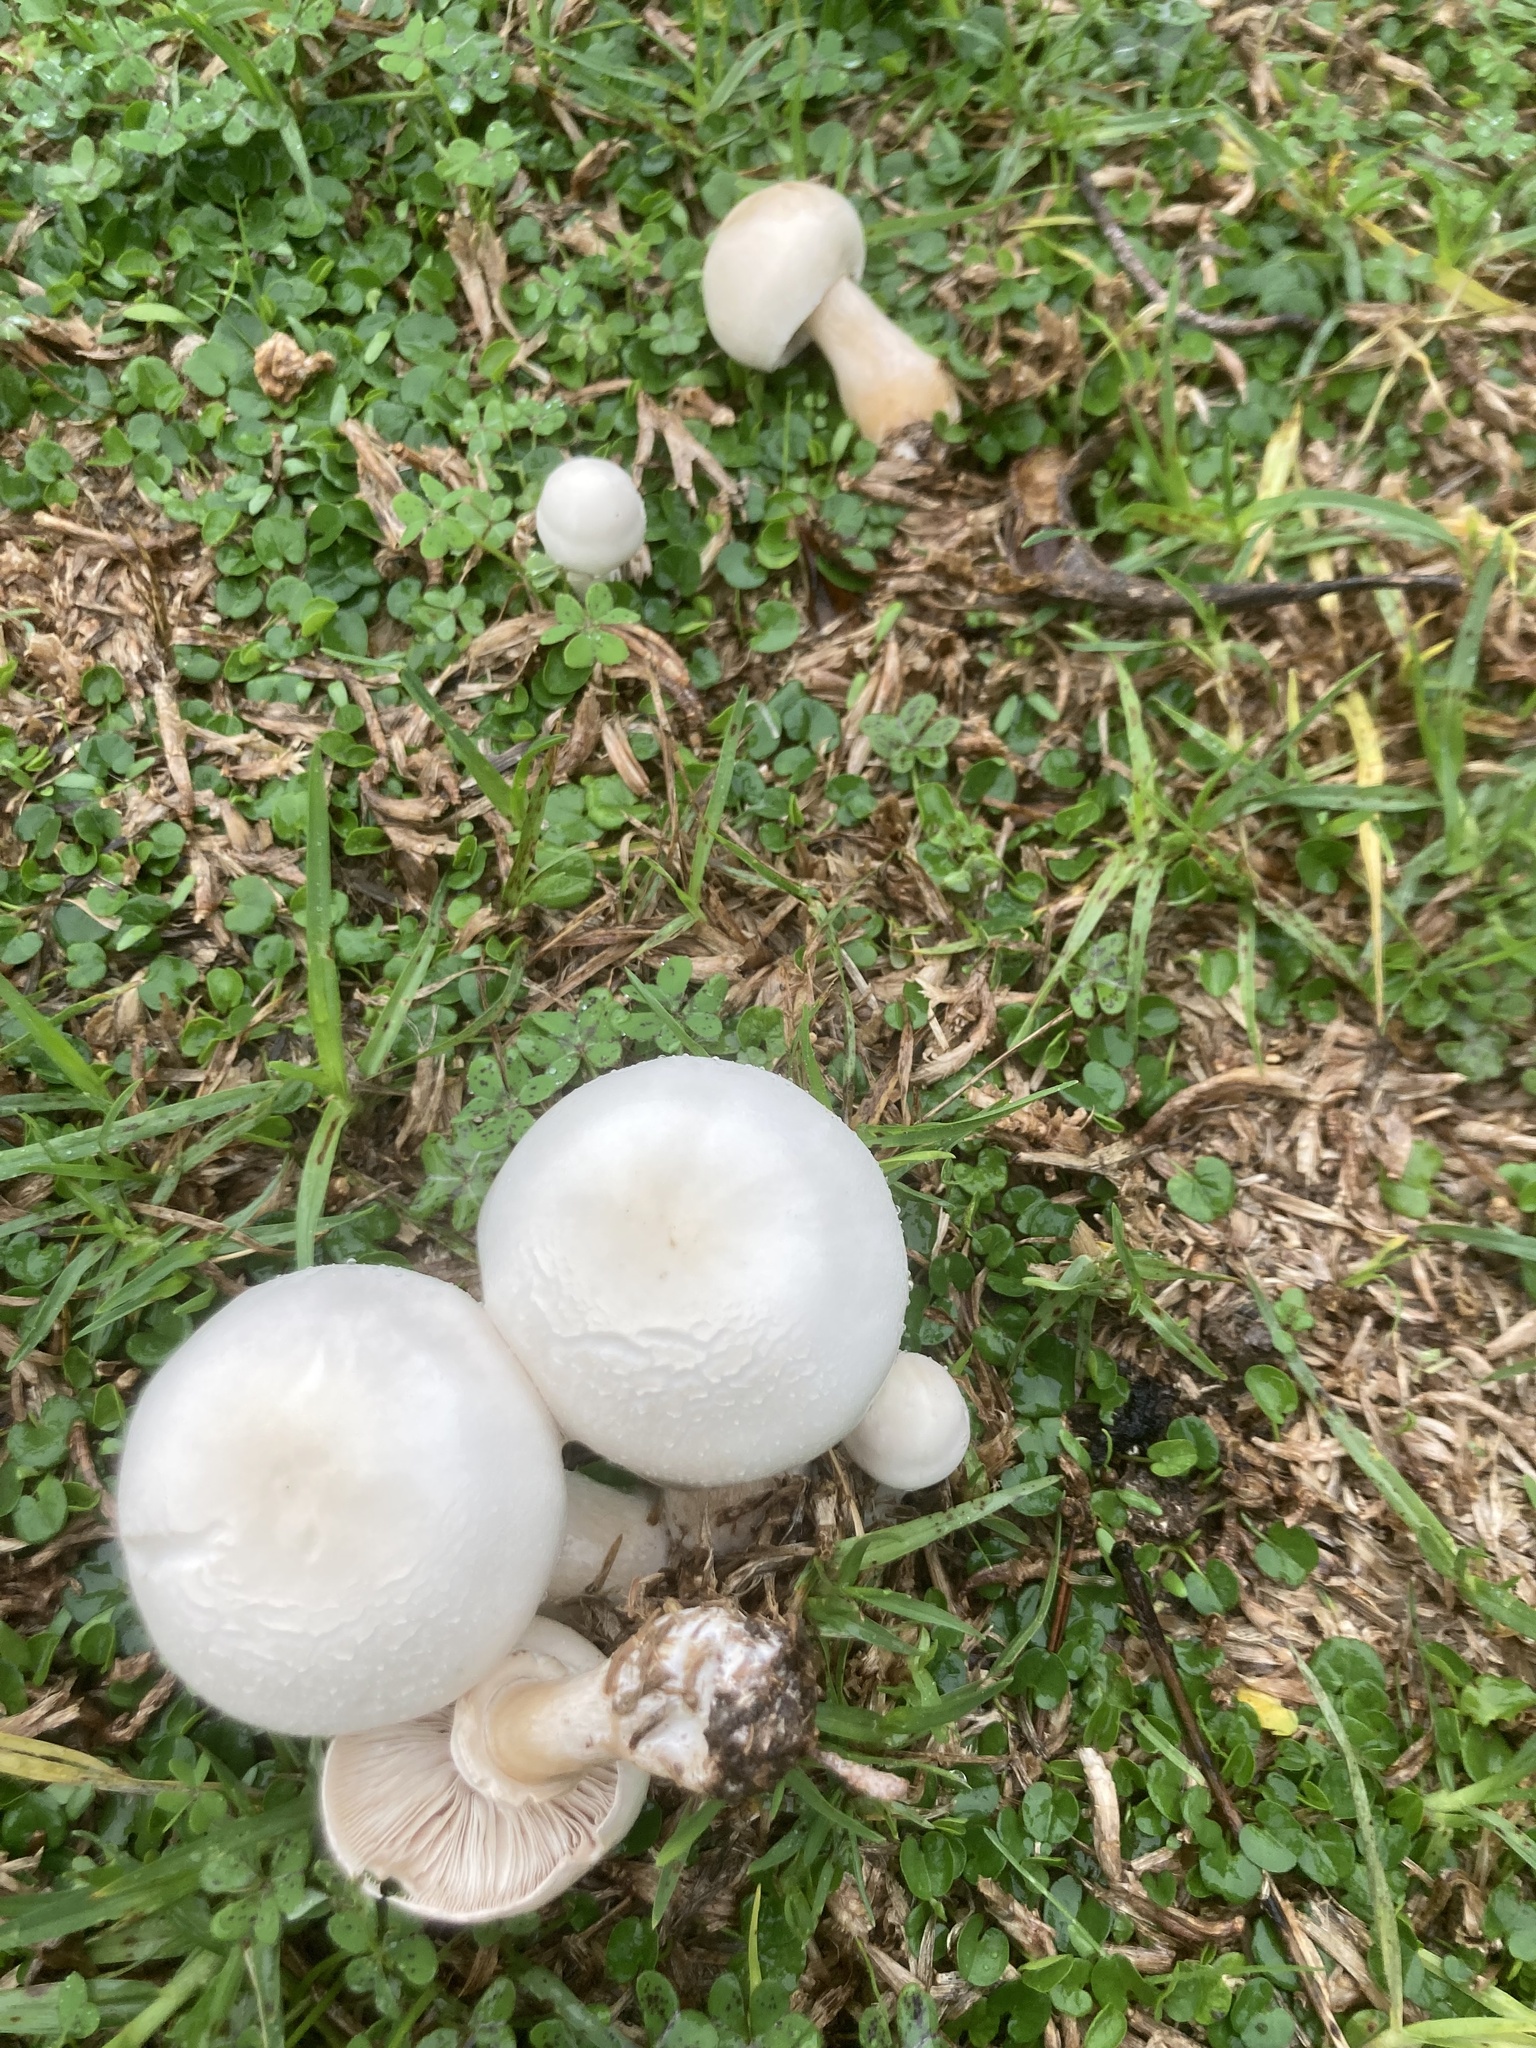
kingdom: Fungi
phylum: Basidiomycota
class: Agaricomycetes
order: Agaricales
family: Agaricaceae
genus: Leucoagaricus
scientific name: Leucoagaricus leucothites
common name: White dapperling
